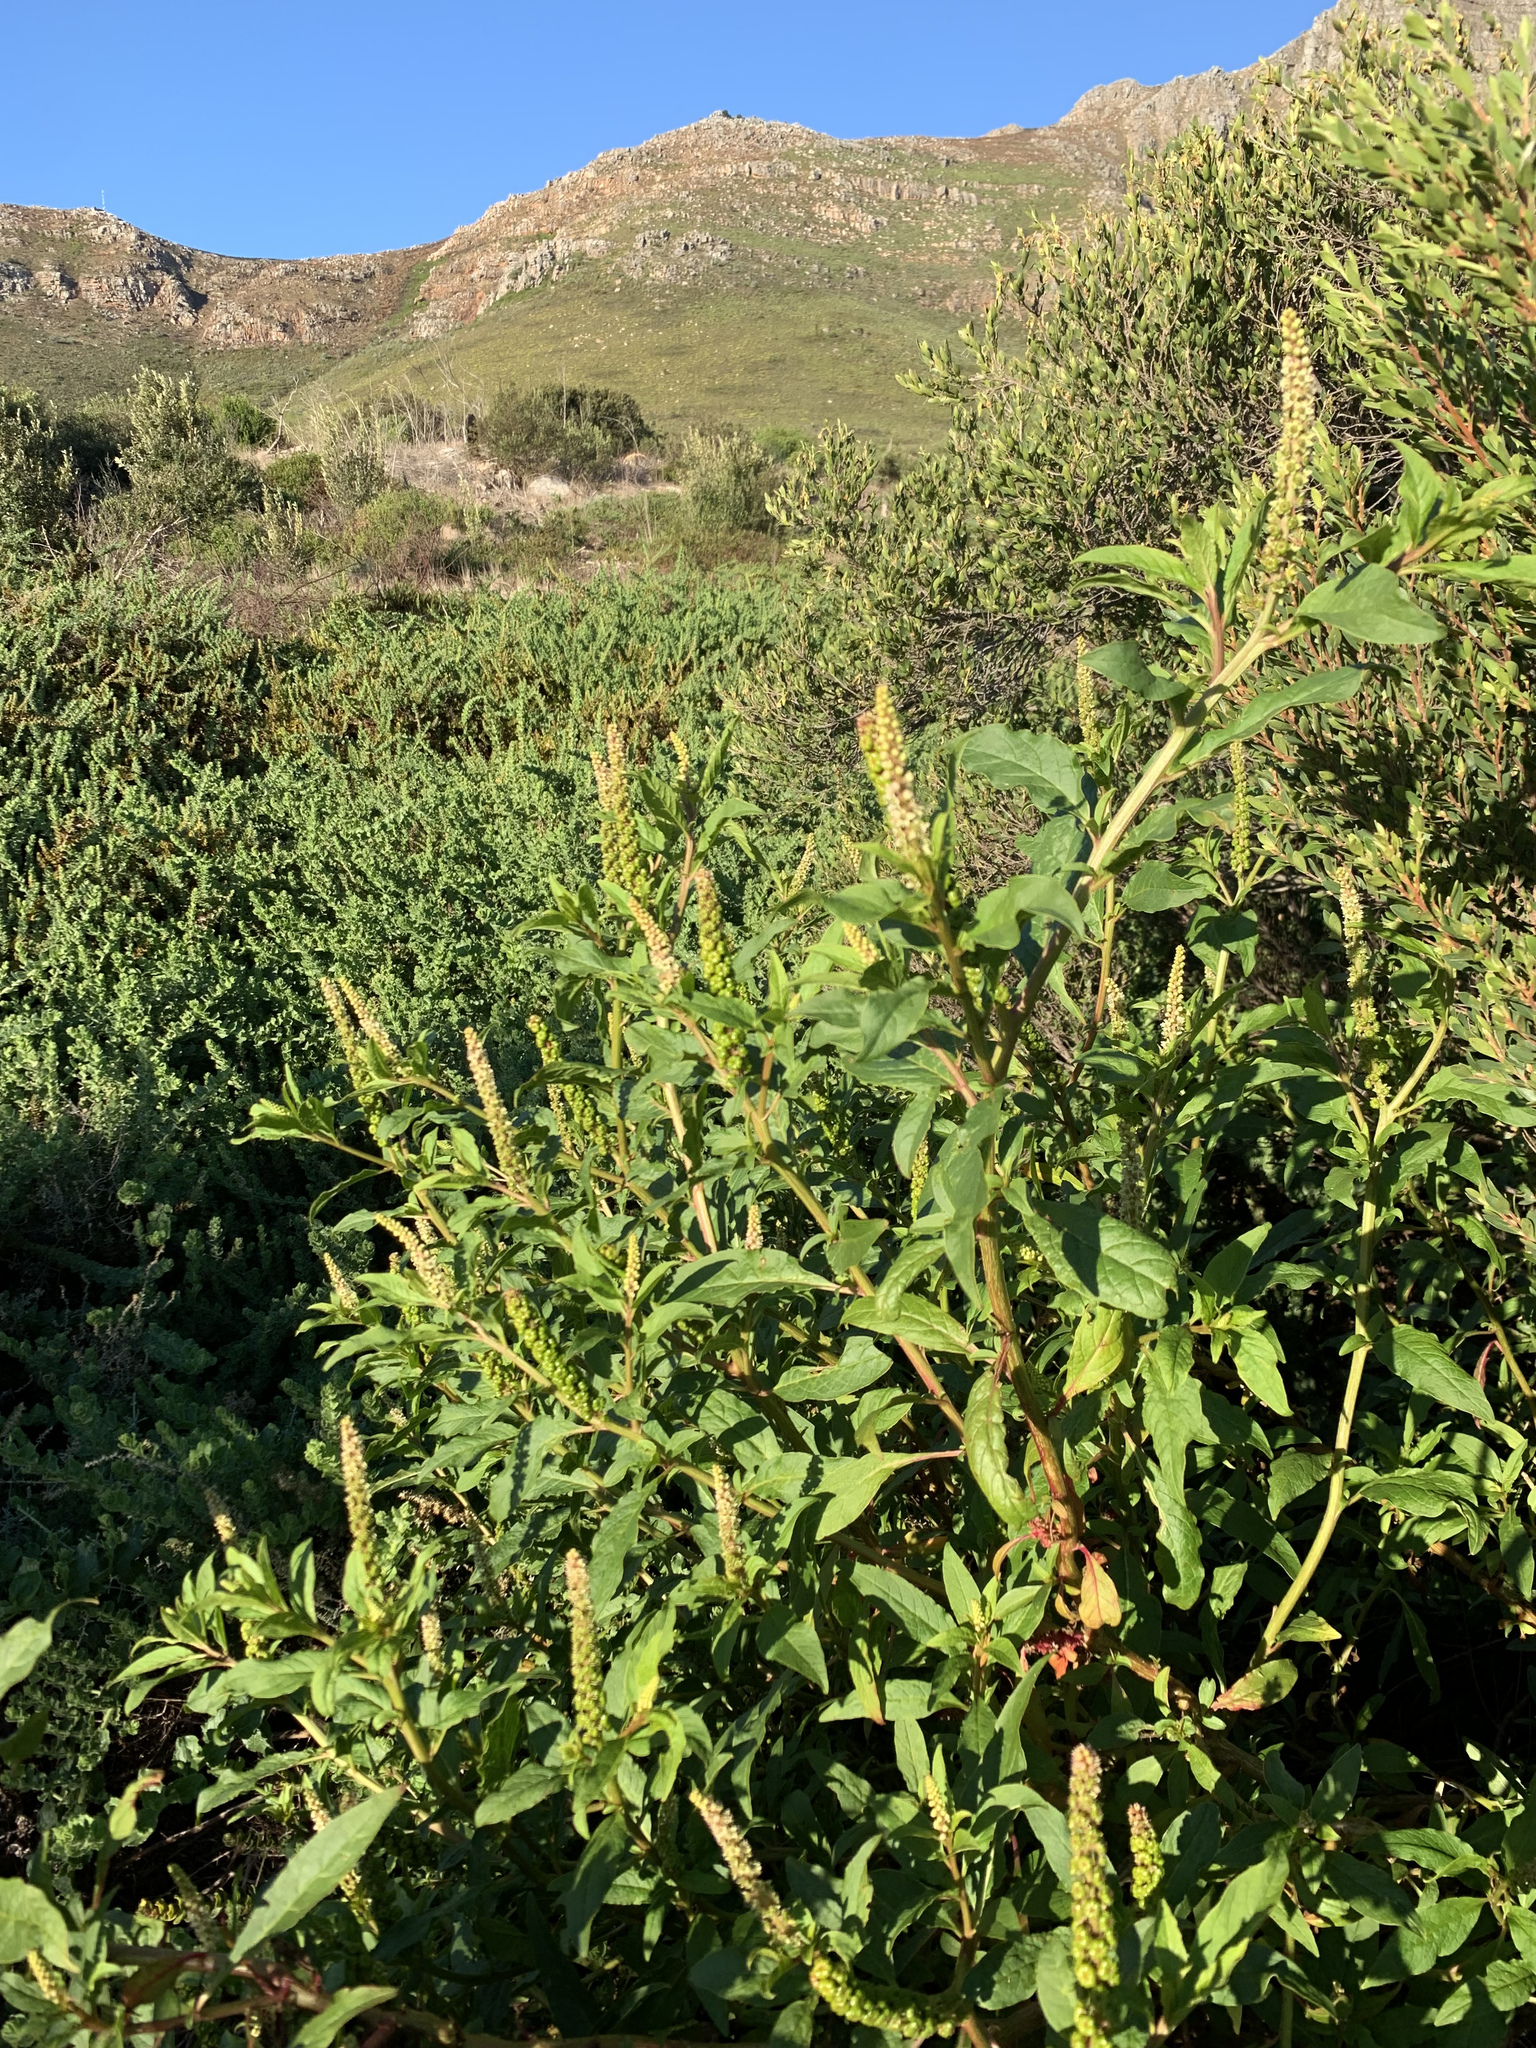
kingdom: Plantae
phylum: Tracheophyta
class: Magnoliopsida
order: Caryophyllales
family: Phytolaccaceae
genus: Phytolacca
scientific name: Phytolacca icosandra
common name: Button pokeweed
